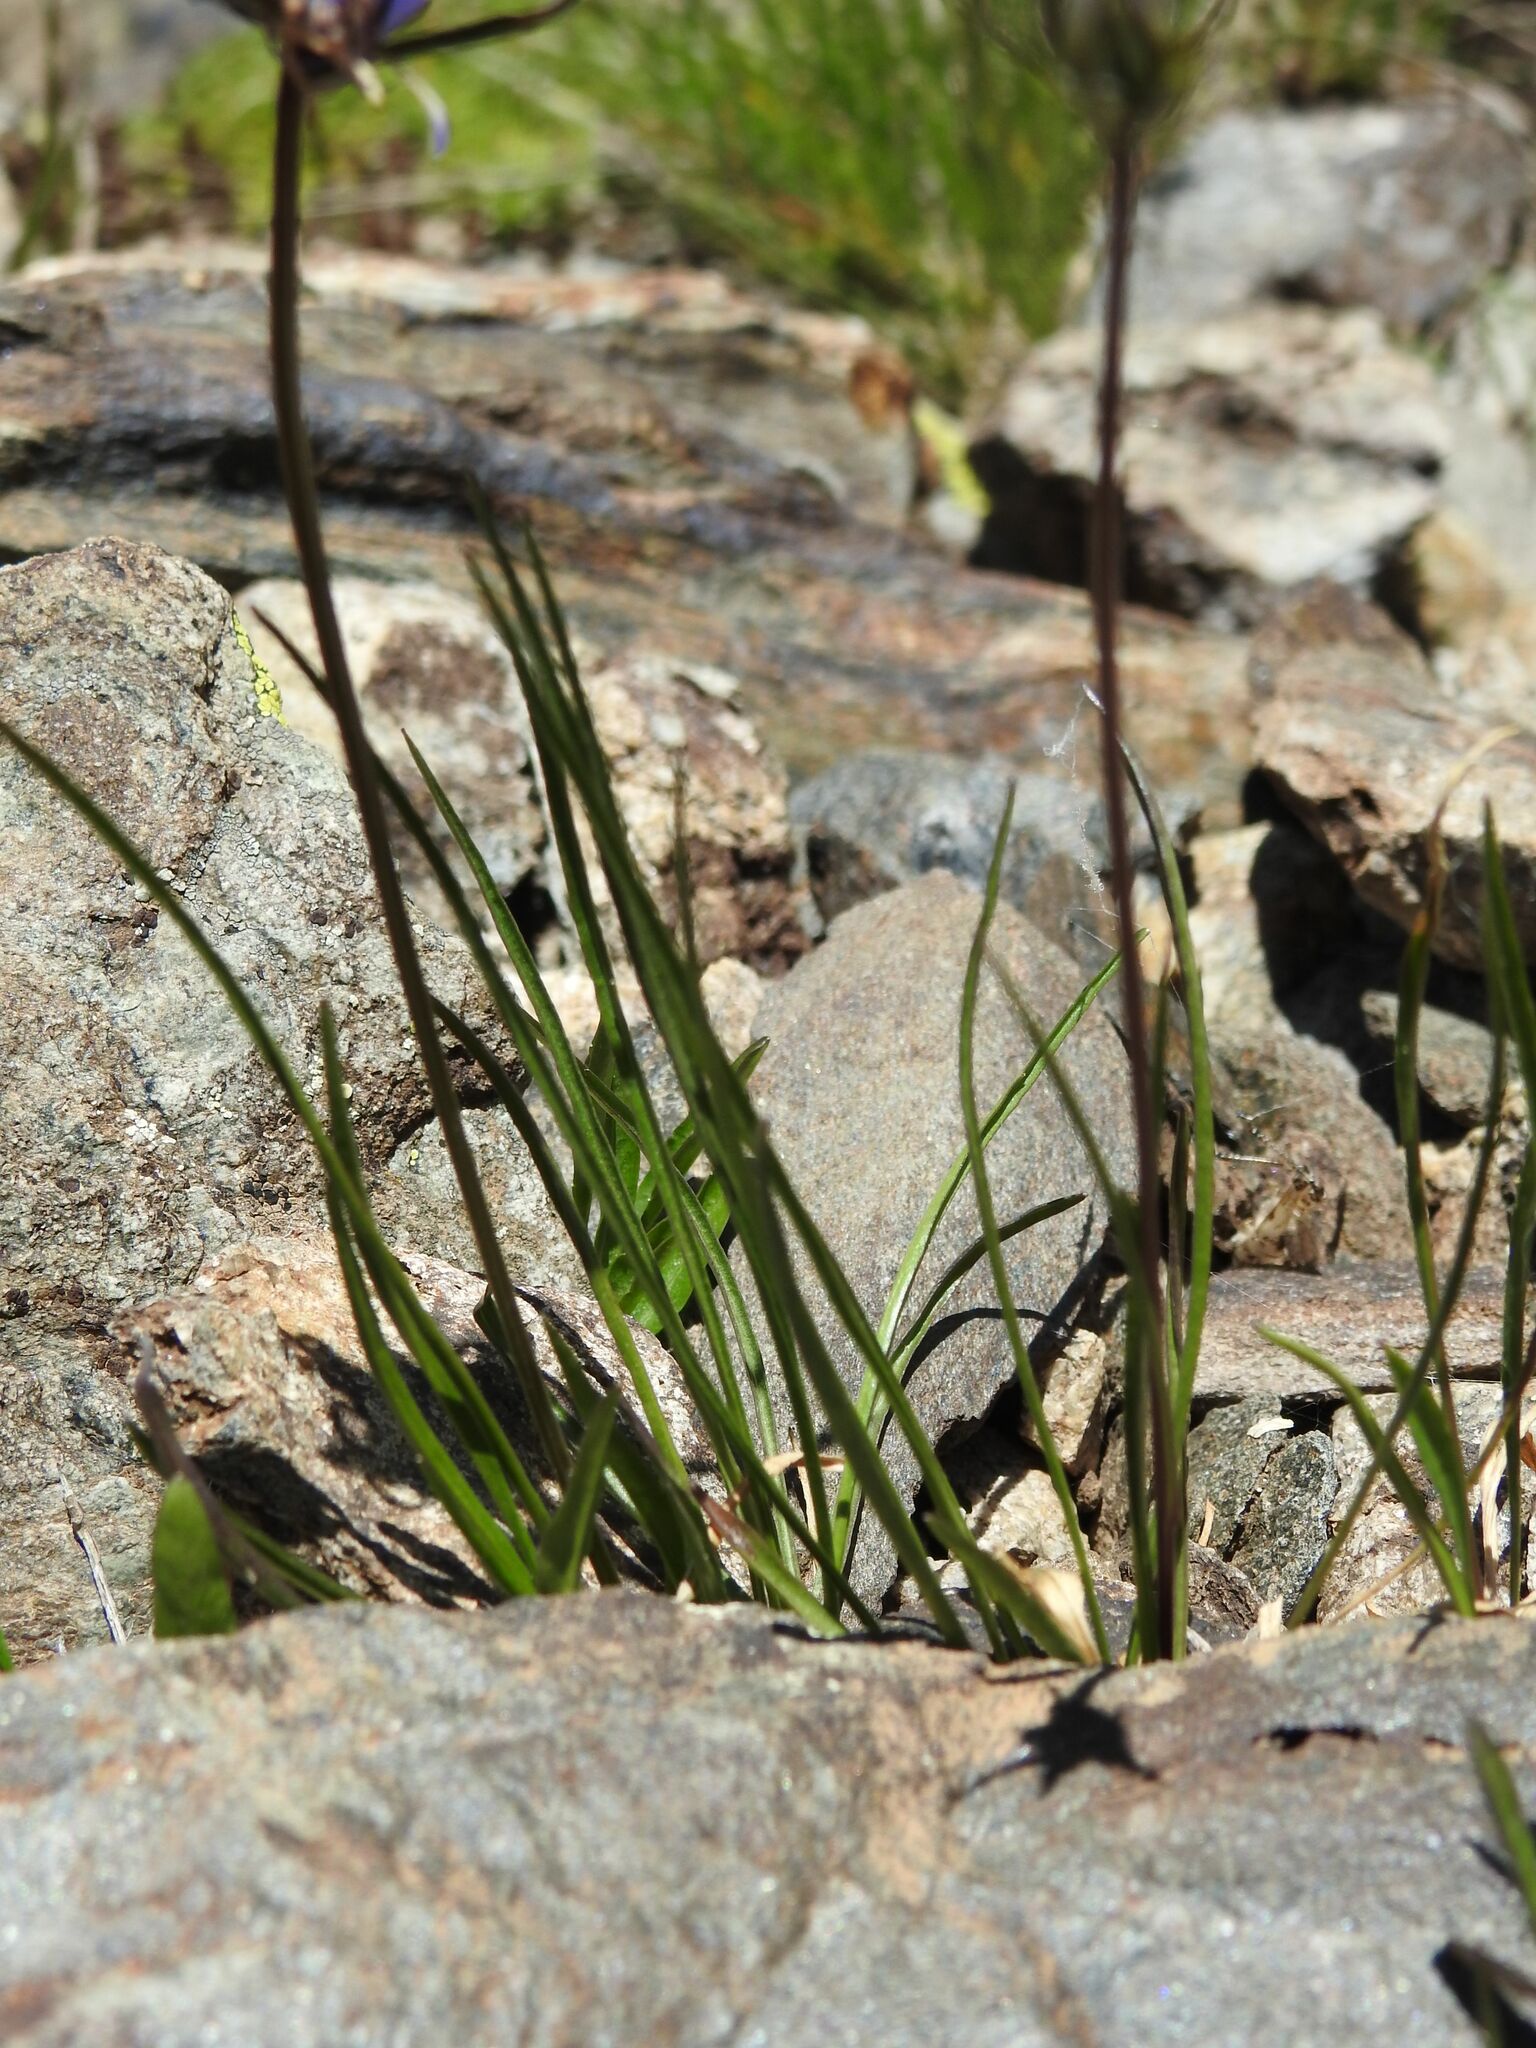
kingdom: Plantae
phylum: Tracheophyta
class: Magnoliopsida
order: Asterales
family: Campanulaceae
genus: Phyteuma
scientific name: Phyteuma hemisphaericum
